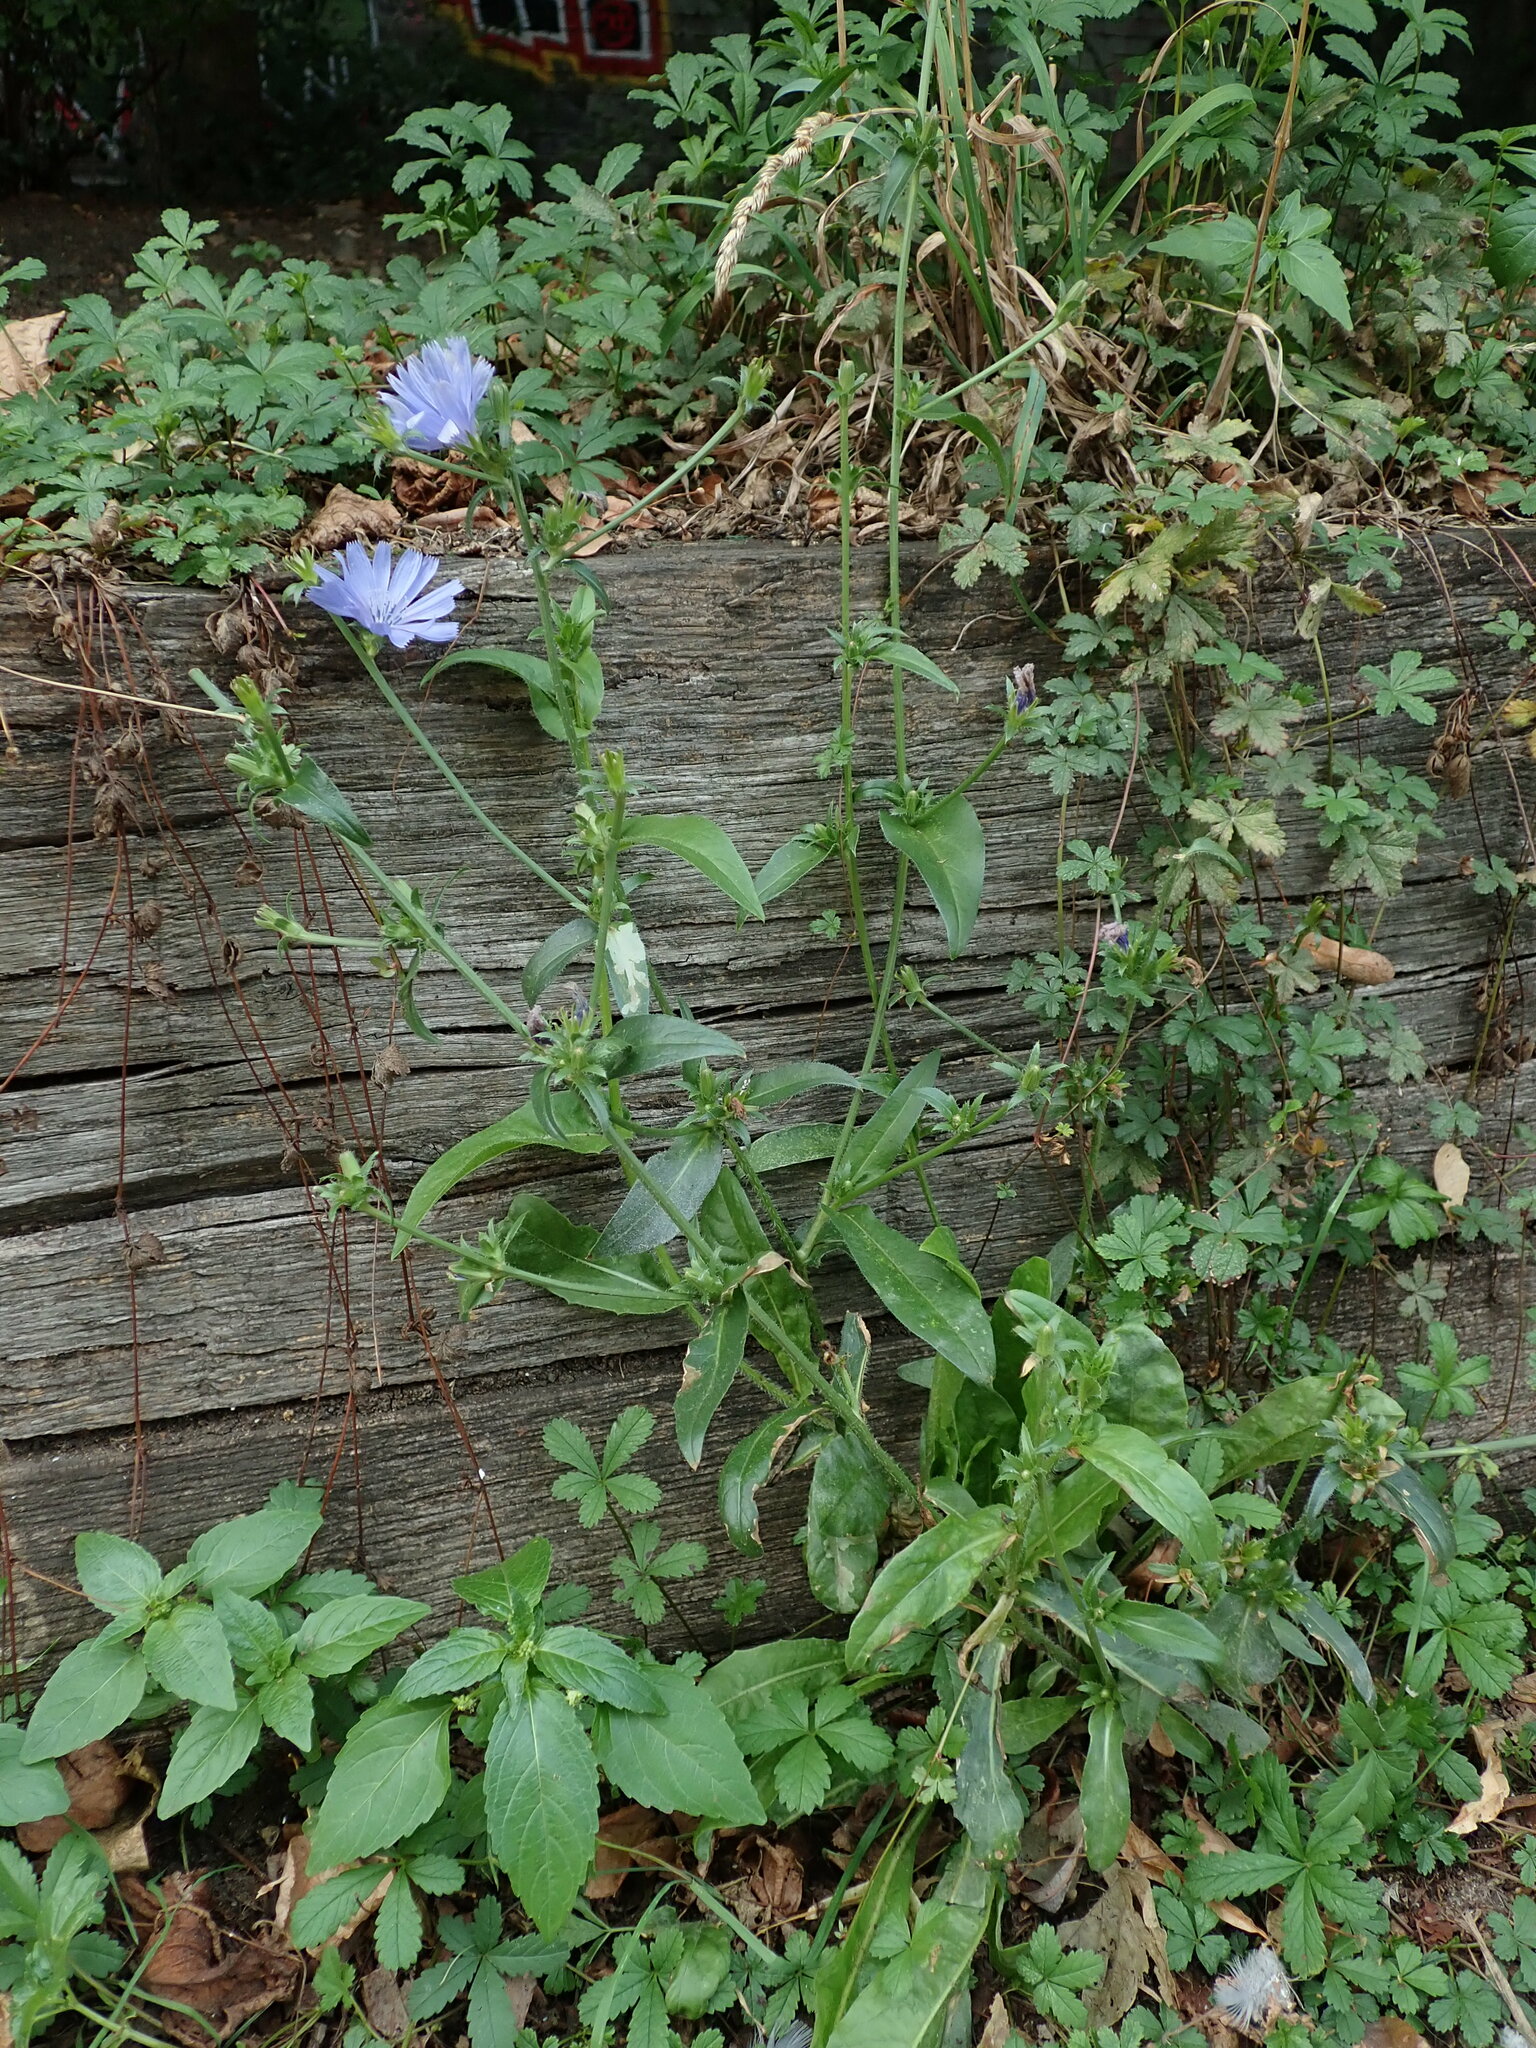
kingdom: Plantae
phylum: Tracheophyta
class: Magnoliopsida
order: Asterales
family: Asteraceae
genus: Cichorium
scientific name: Cichorium intybus
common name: Chicory
